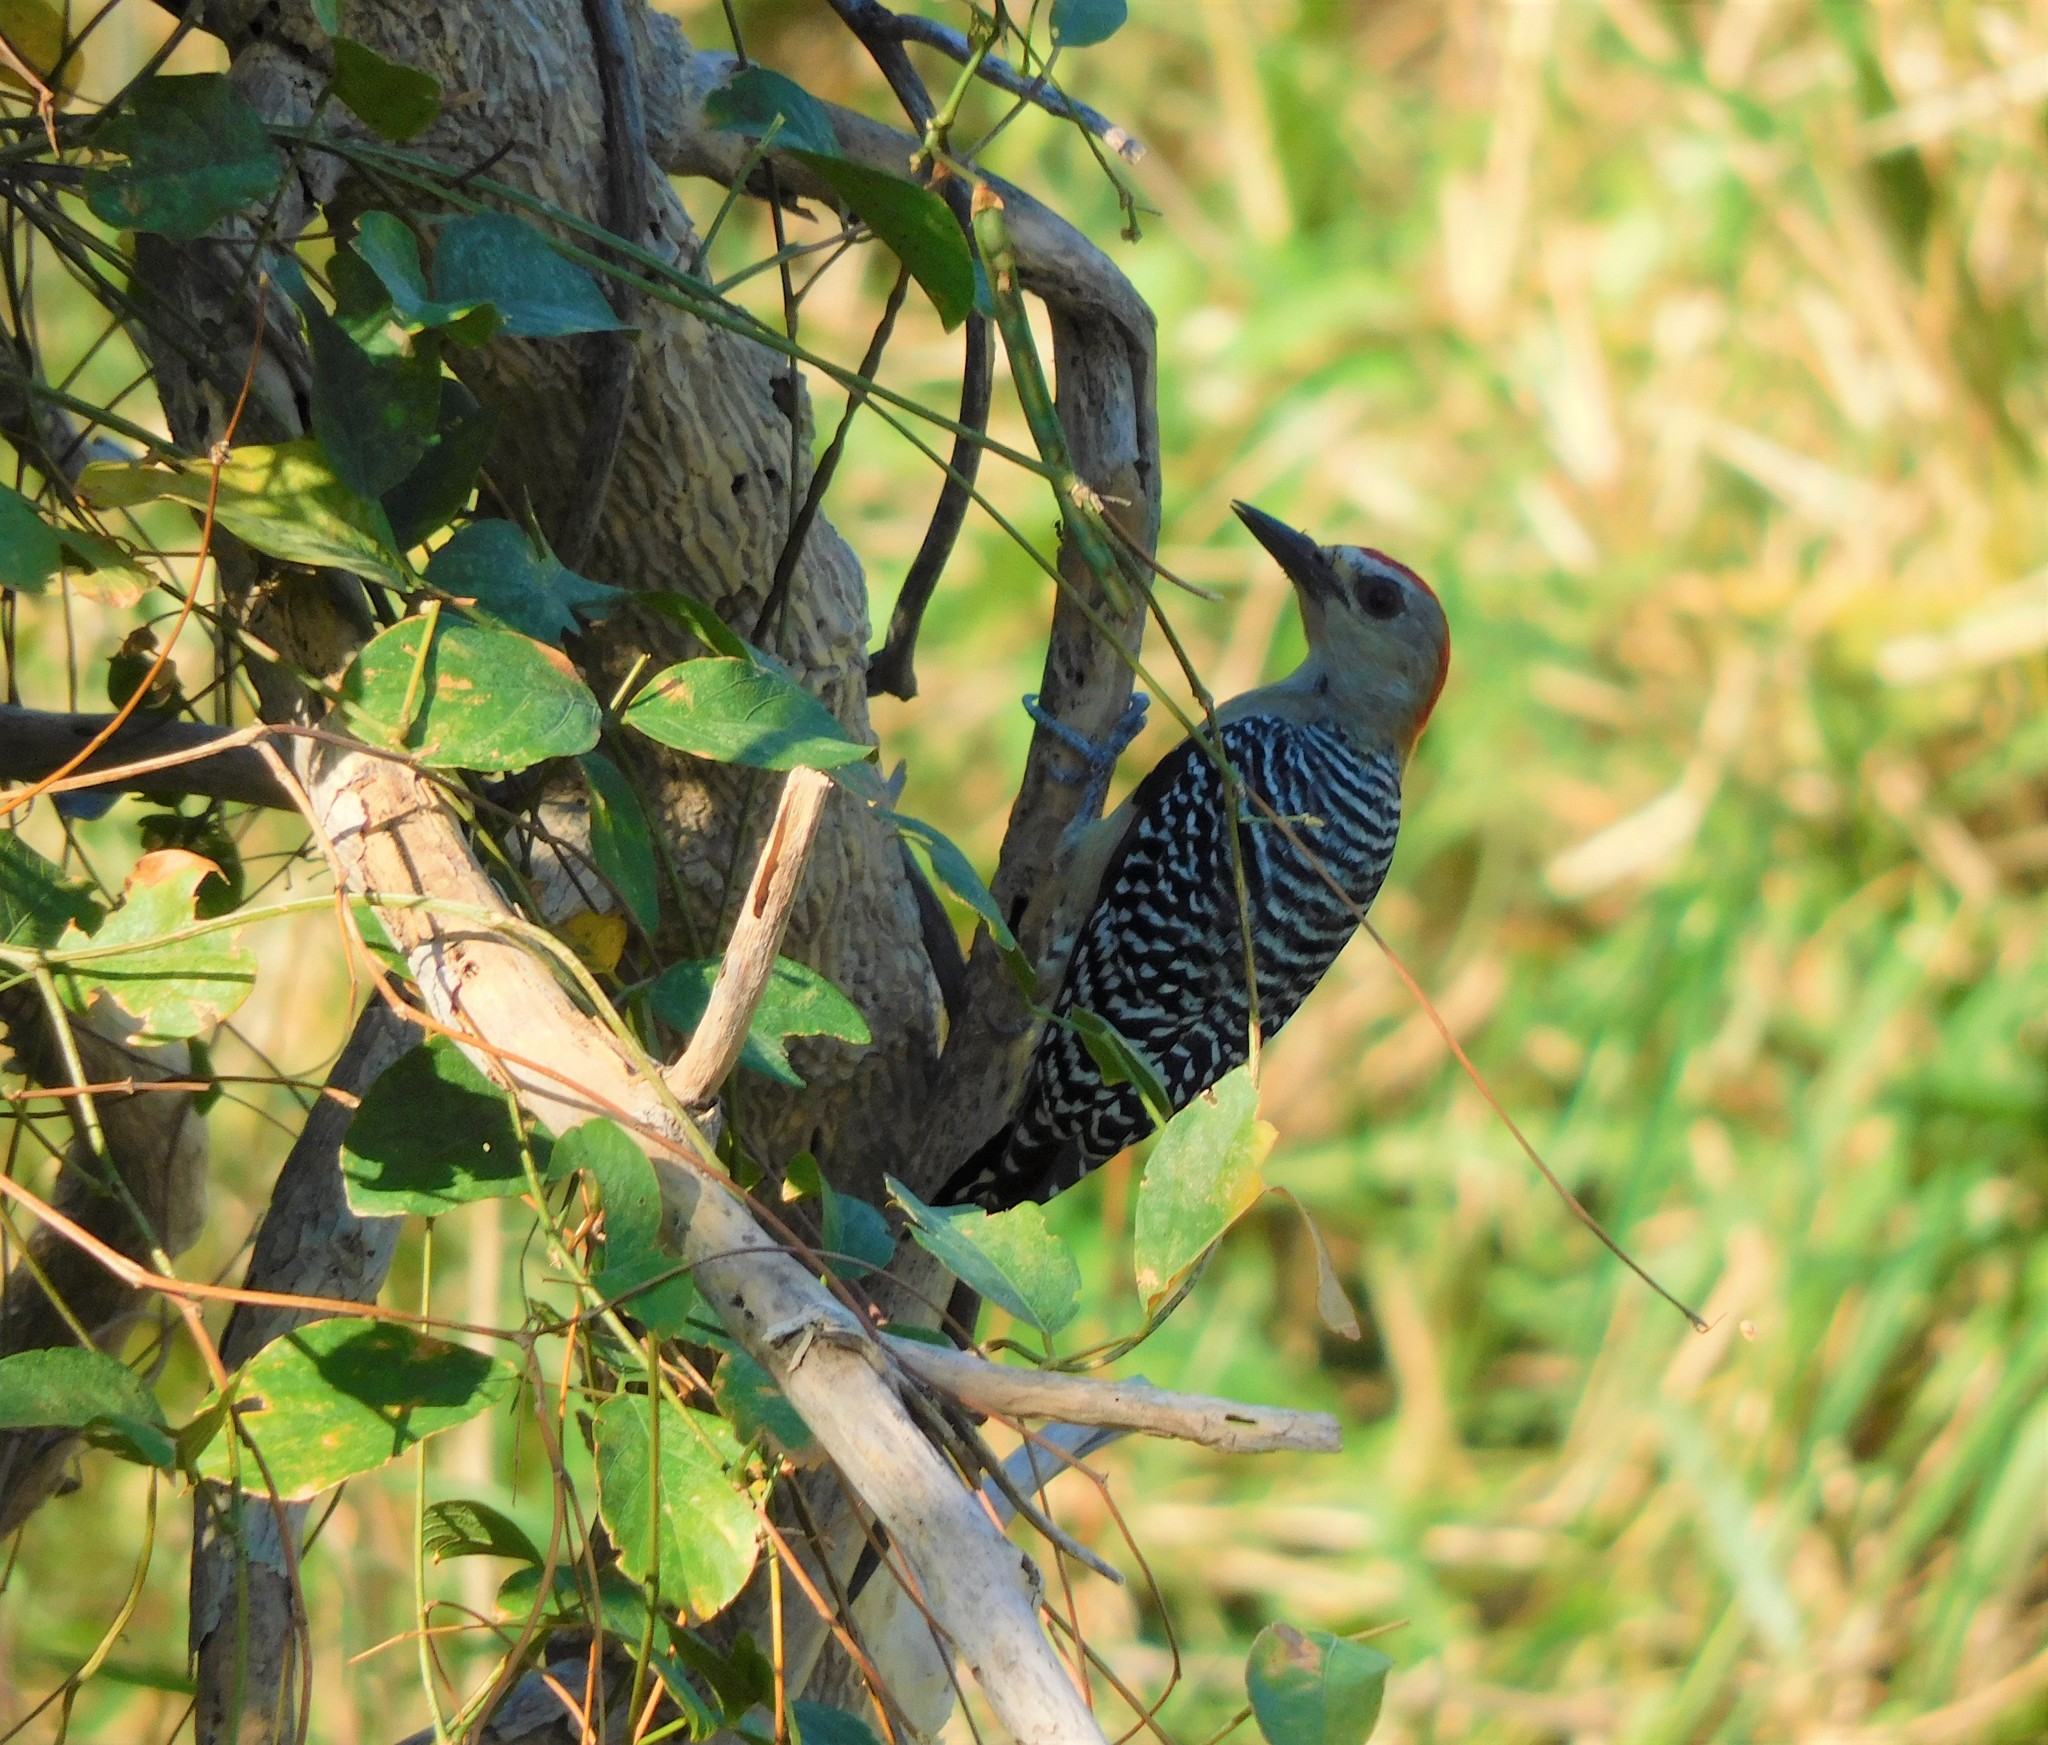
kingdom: Animalia
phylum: Chordata
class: Aves
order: Piciformes
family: Picidae
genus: Melanerpes
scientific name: Melanerpes rubricapillus
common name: Red-crowned woodpecker
